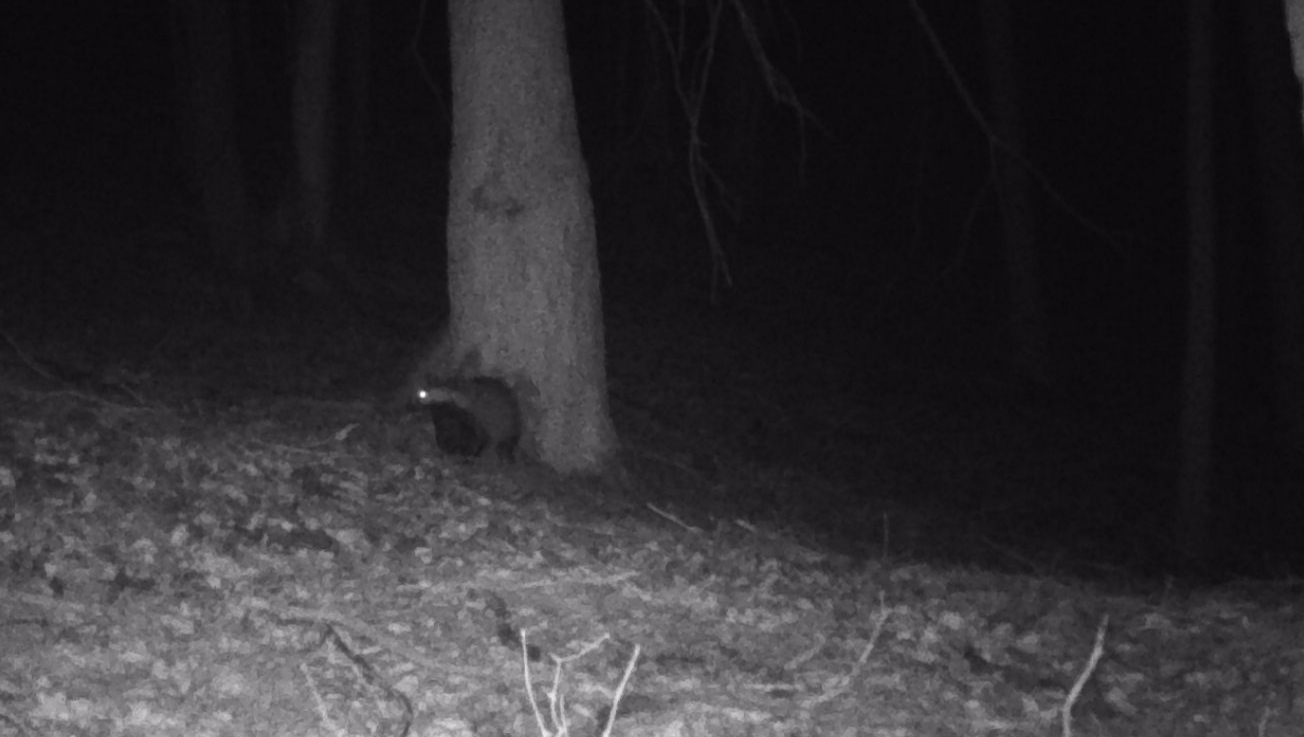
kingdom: Animalia
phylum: Chordata
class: Mammalia
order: Carnivora
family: Mustelidae
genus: Meles
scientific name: Meles meles
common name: Eurasian badger
